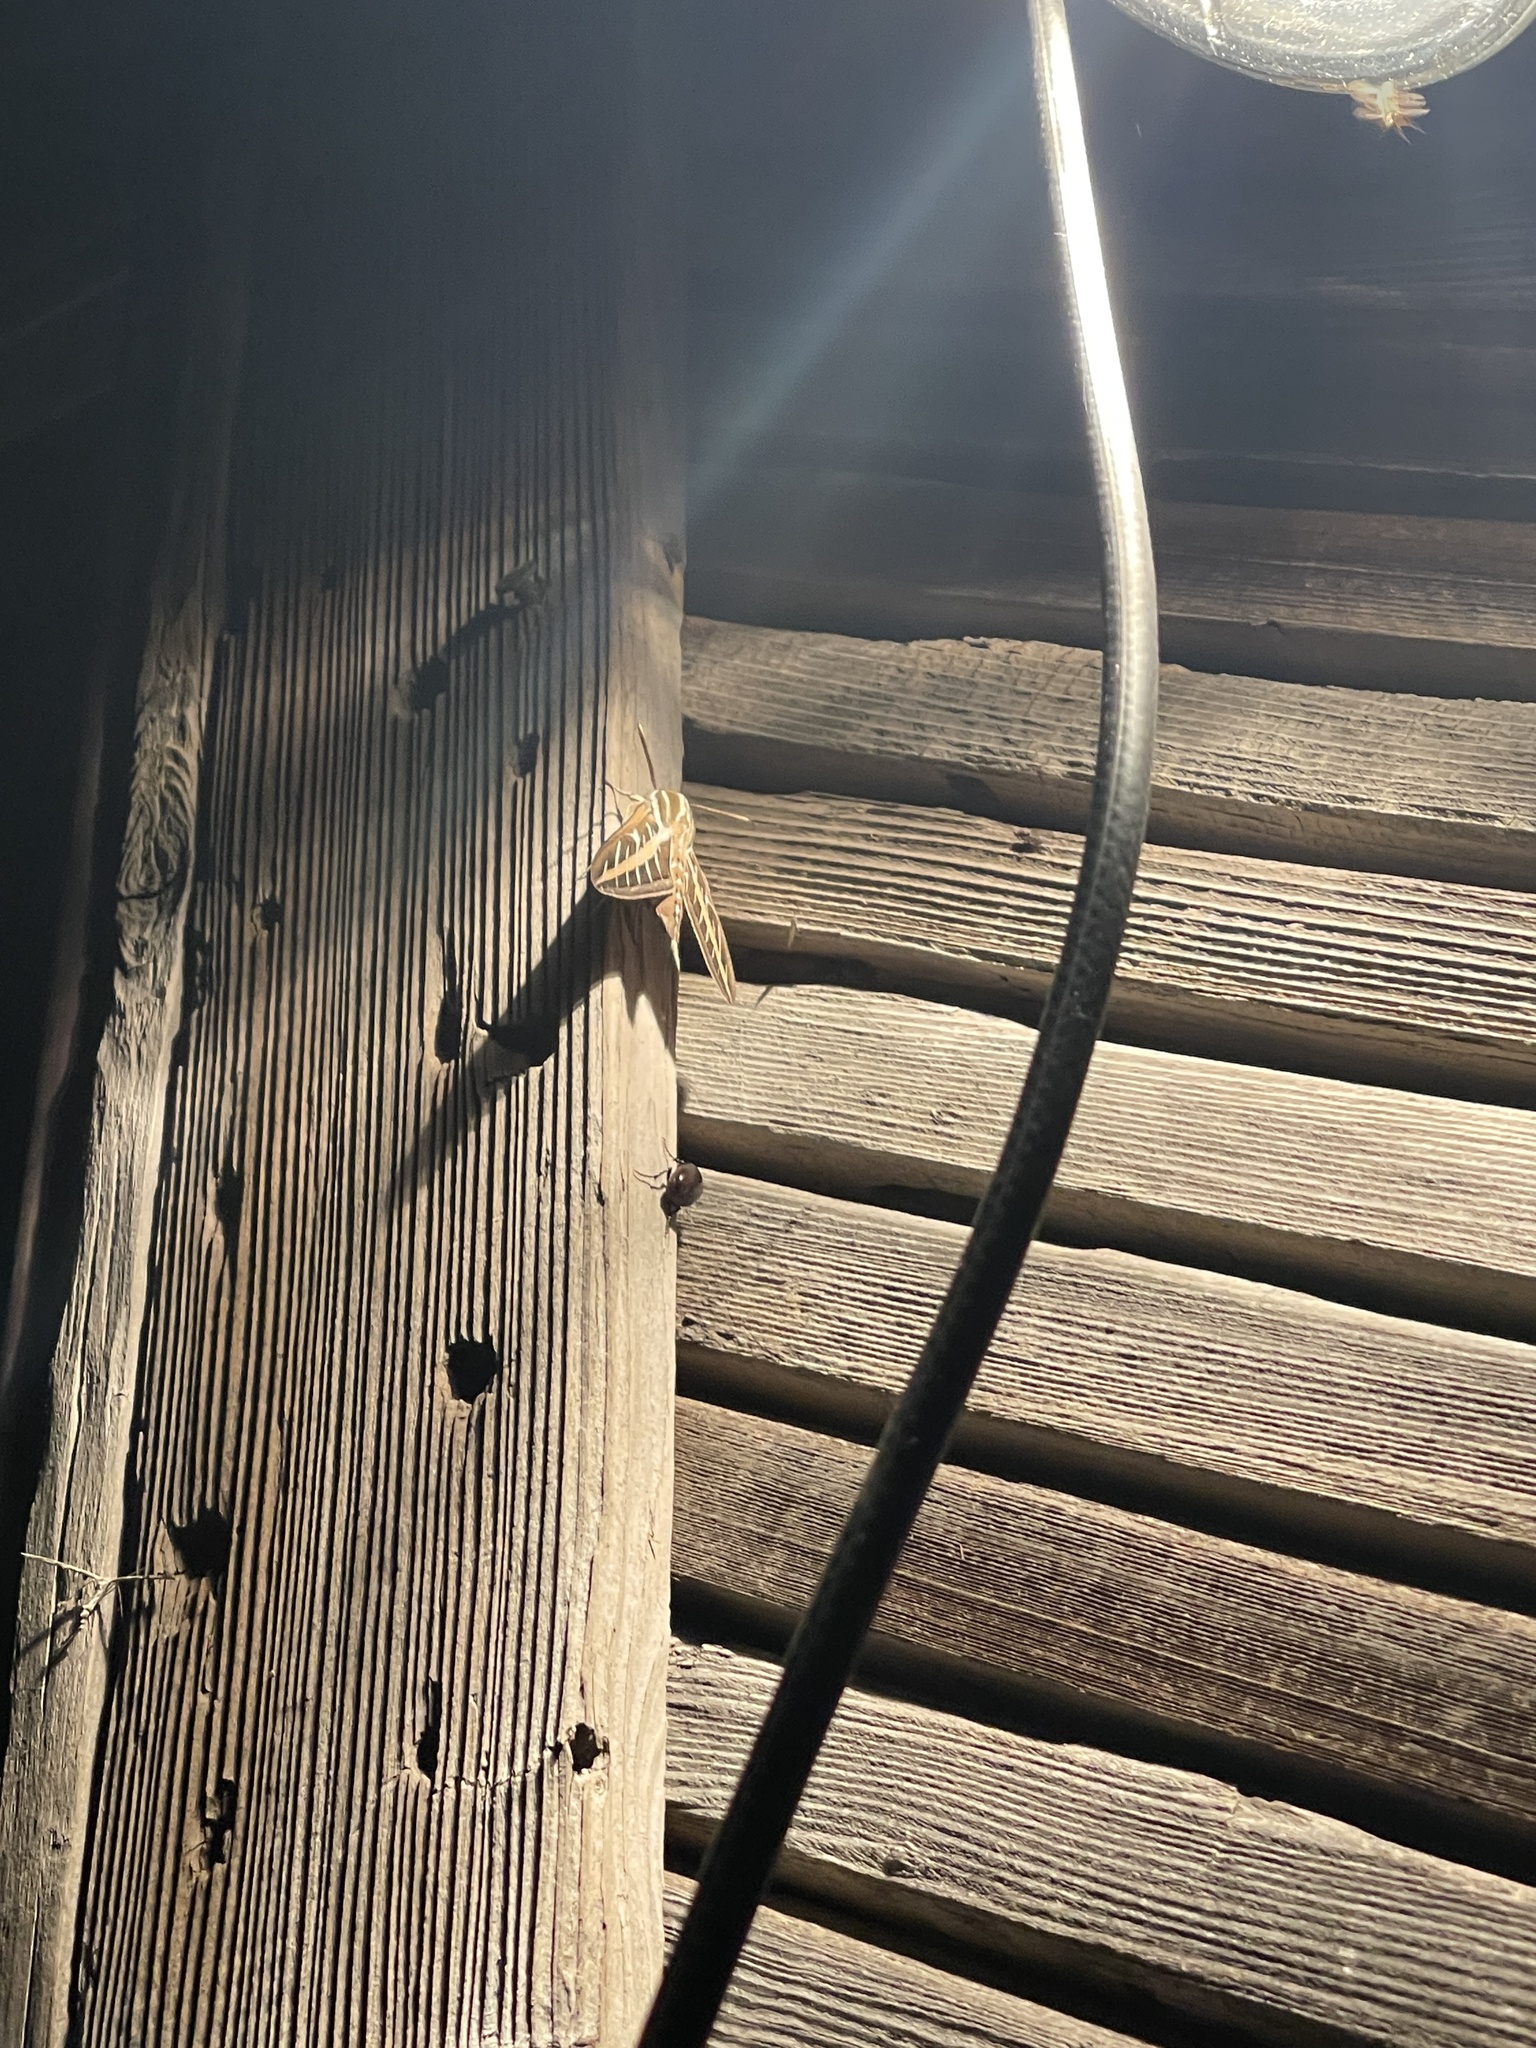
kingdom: Animalia
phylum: Arthropoda
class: Insecta
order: Lepidoptera
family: Sphingidae
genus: Hyles
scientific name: Hyles lineata
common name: White-lined sphinx
